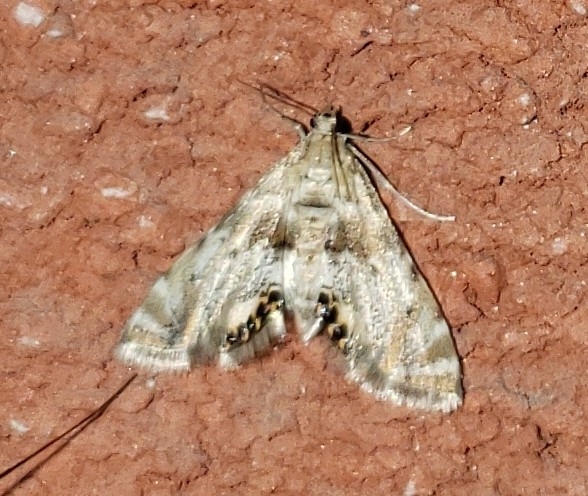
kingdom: Animalia
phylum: Arthropoda
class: Insecta
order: Lepidoptera
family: Crambidae
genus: Petrophila
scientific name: Petrophila fulicalis
